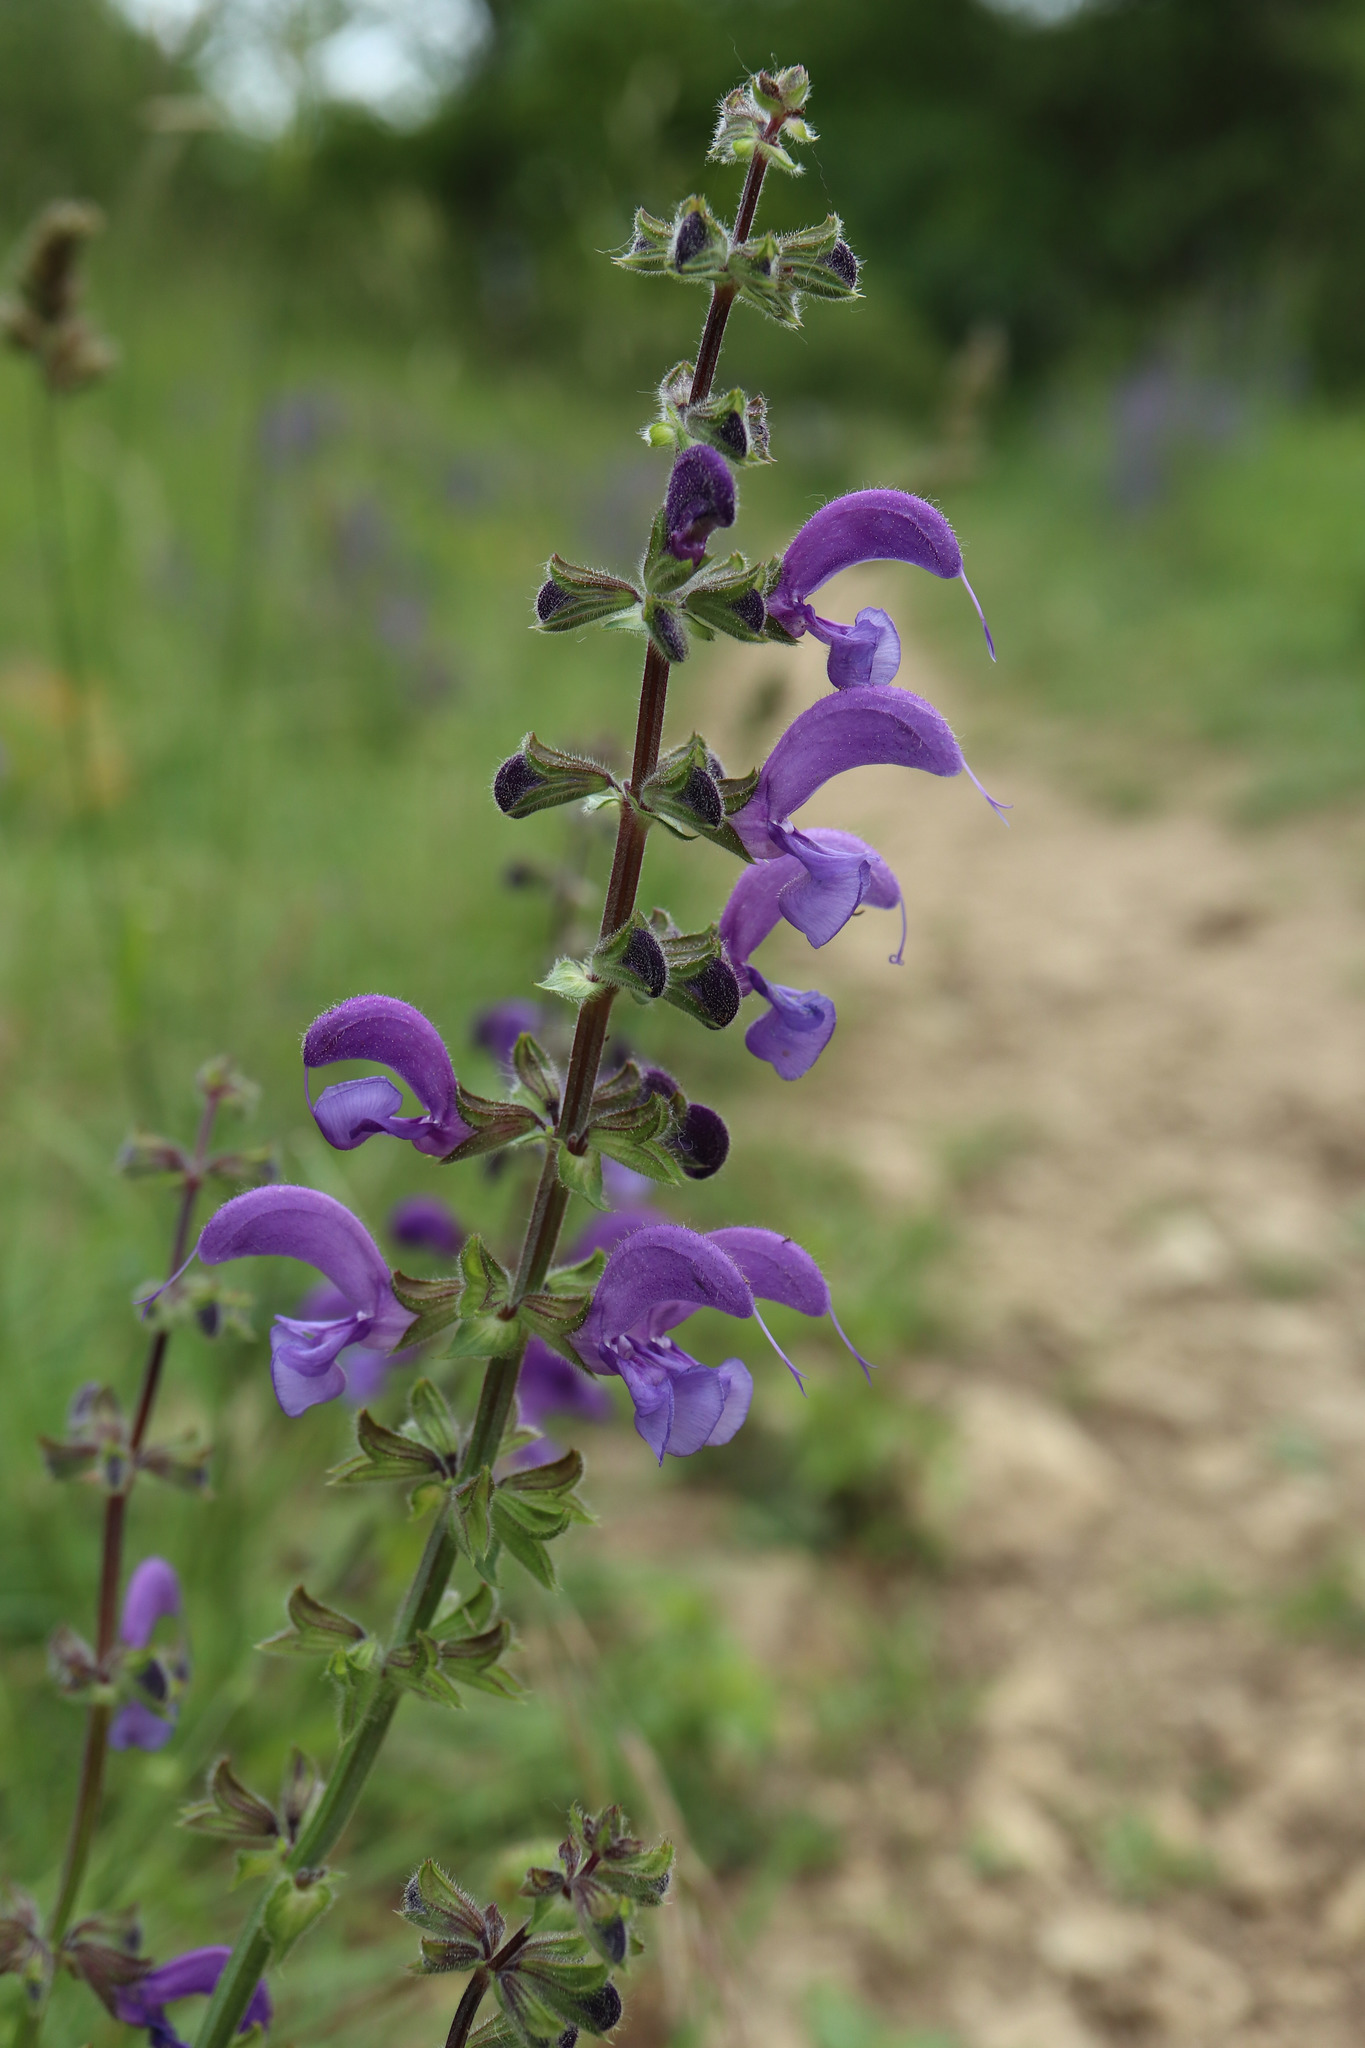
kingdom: Plantae
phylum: Tracheophyta
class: Magnoliopsida
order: Lamiales
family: Lamiaceae
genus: Salvia
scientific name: Salvia pratensis
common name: Meadow sage
